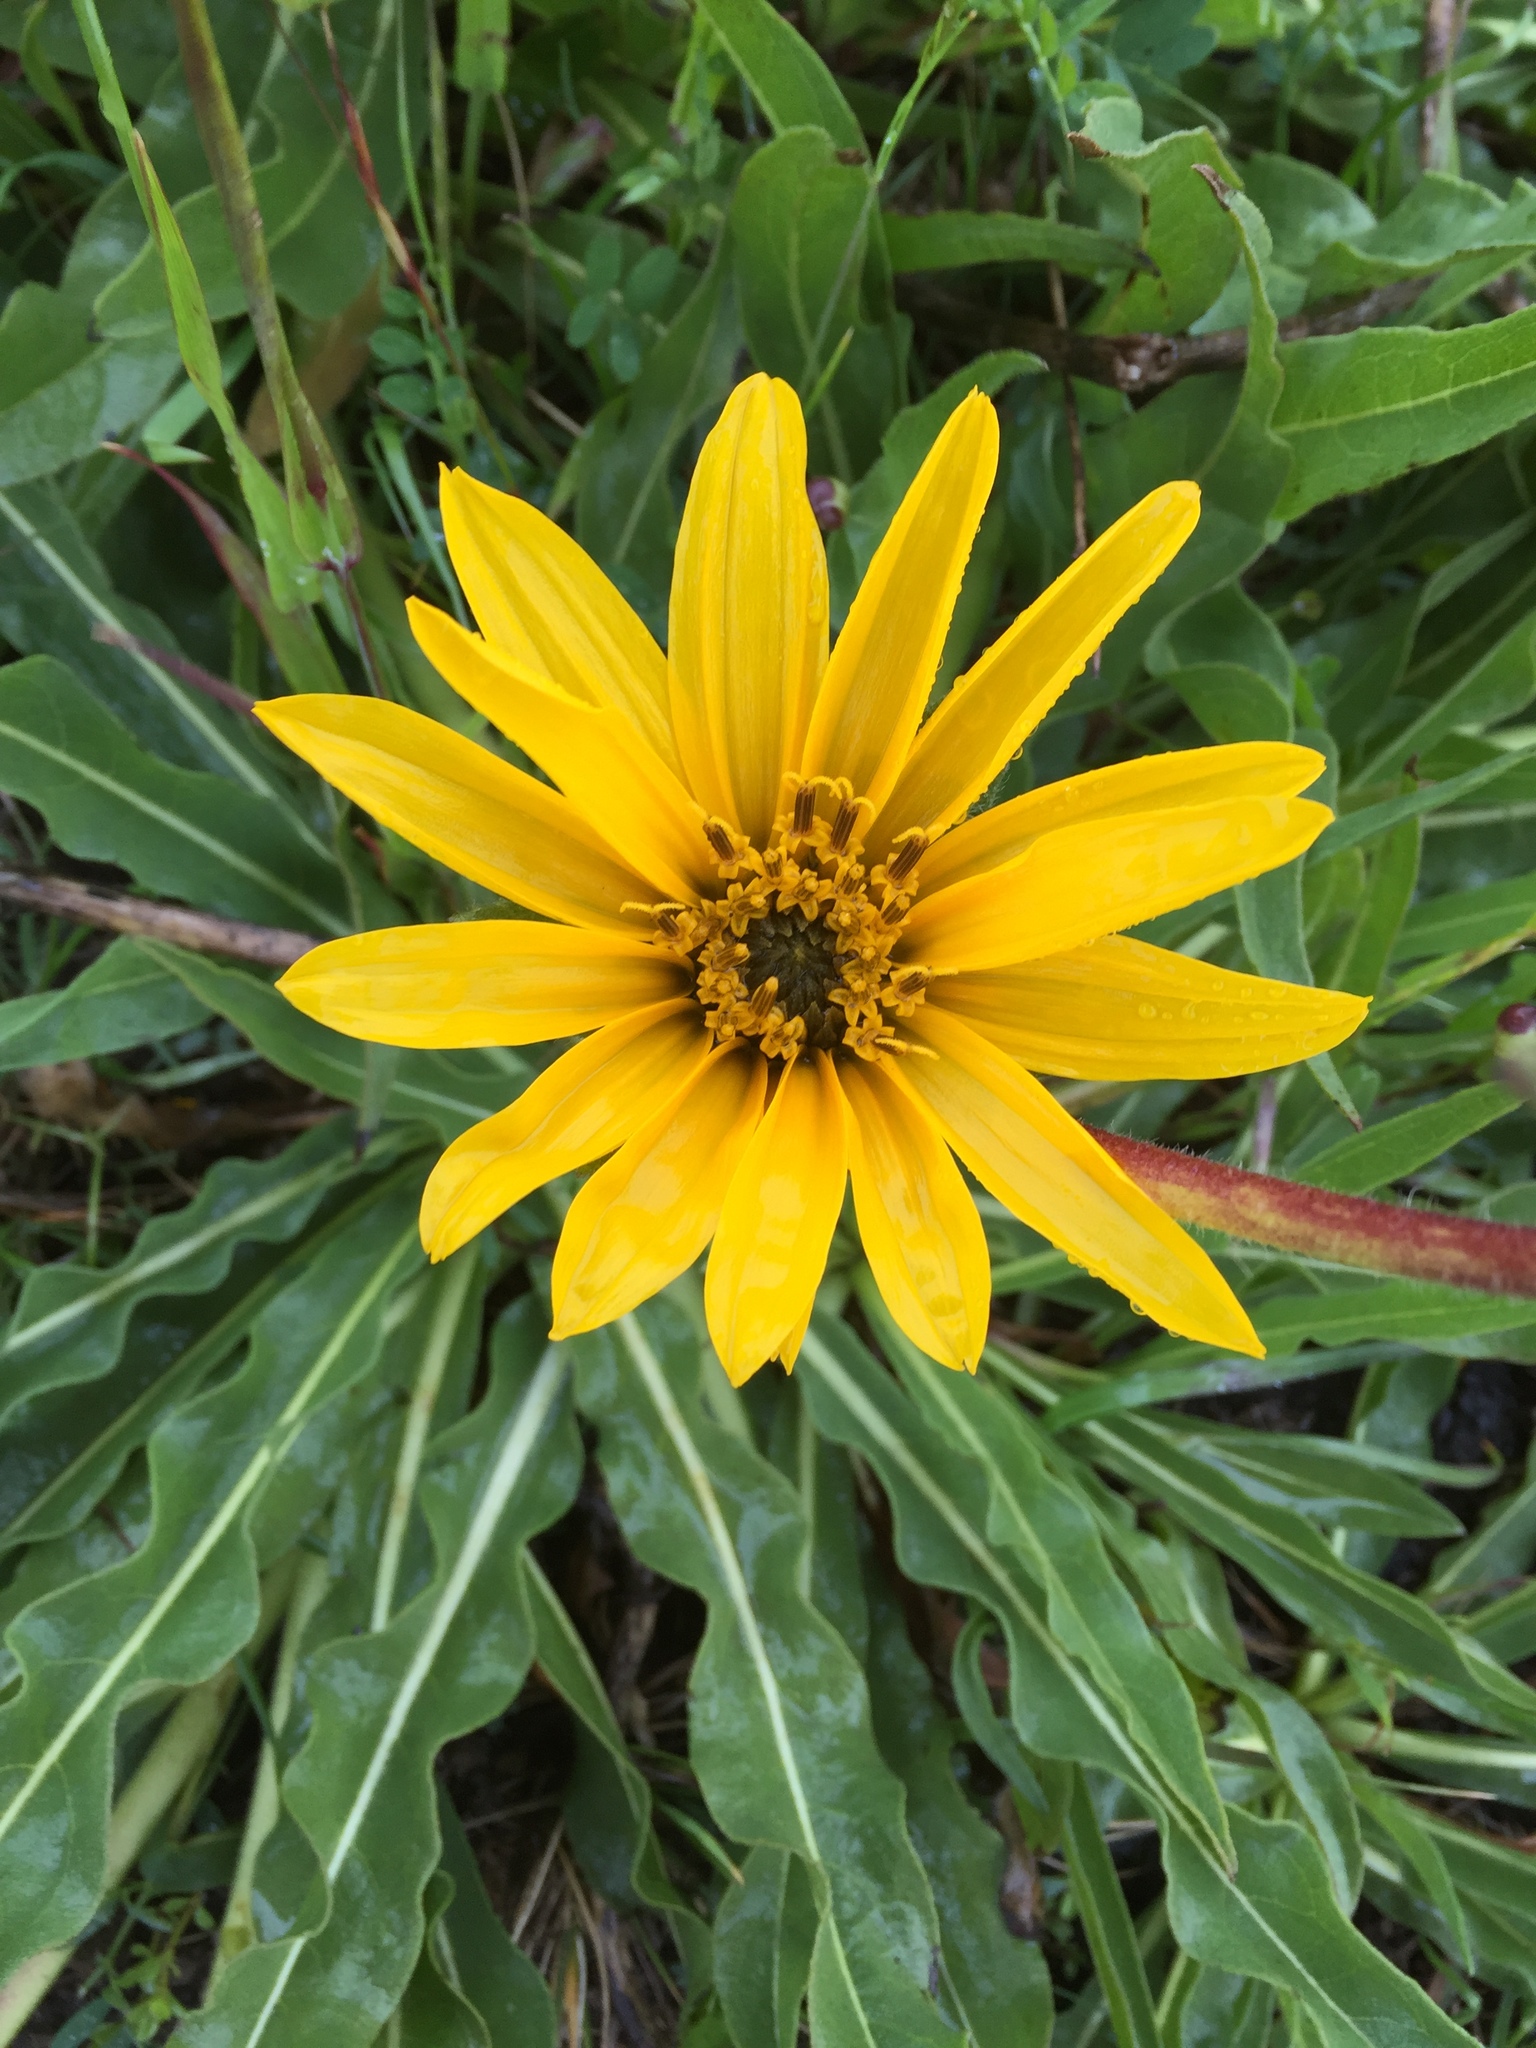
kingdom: Plantae
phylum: Tracheophyta
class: Magnoliopsida
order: Asterales
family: Asteraceae
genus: Wyethia
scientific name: Wyethia angustifolia
